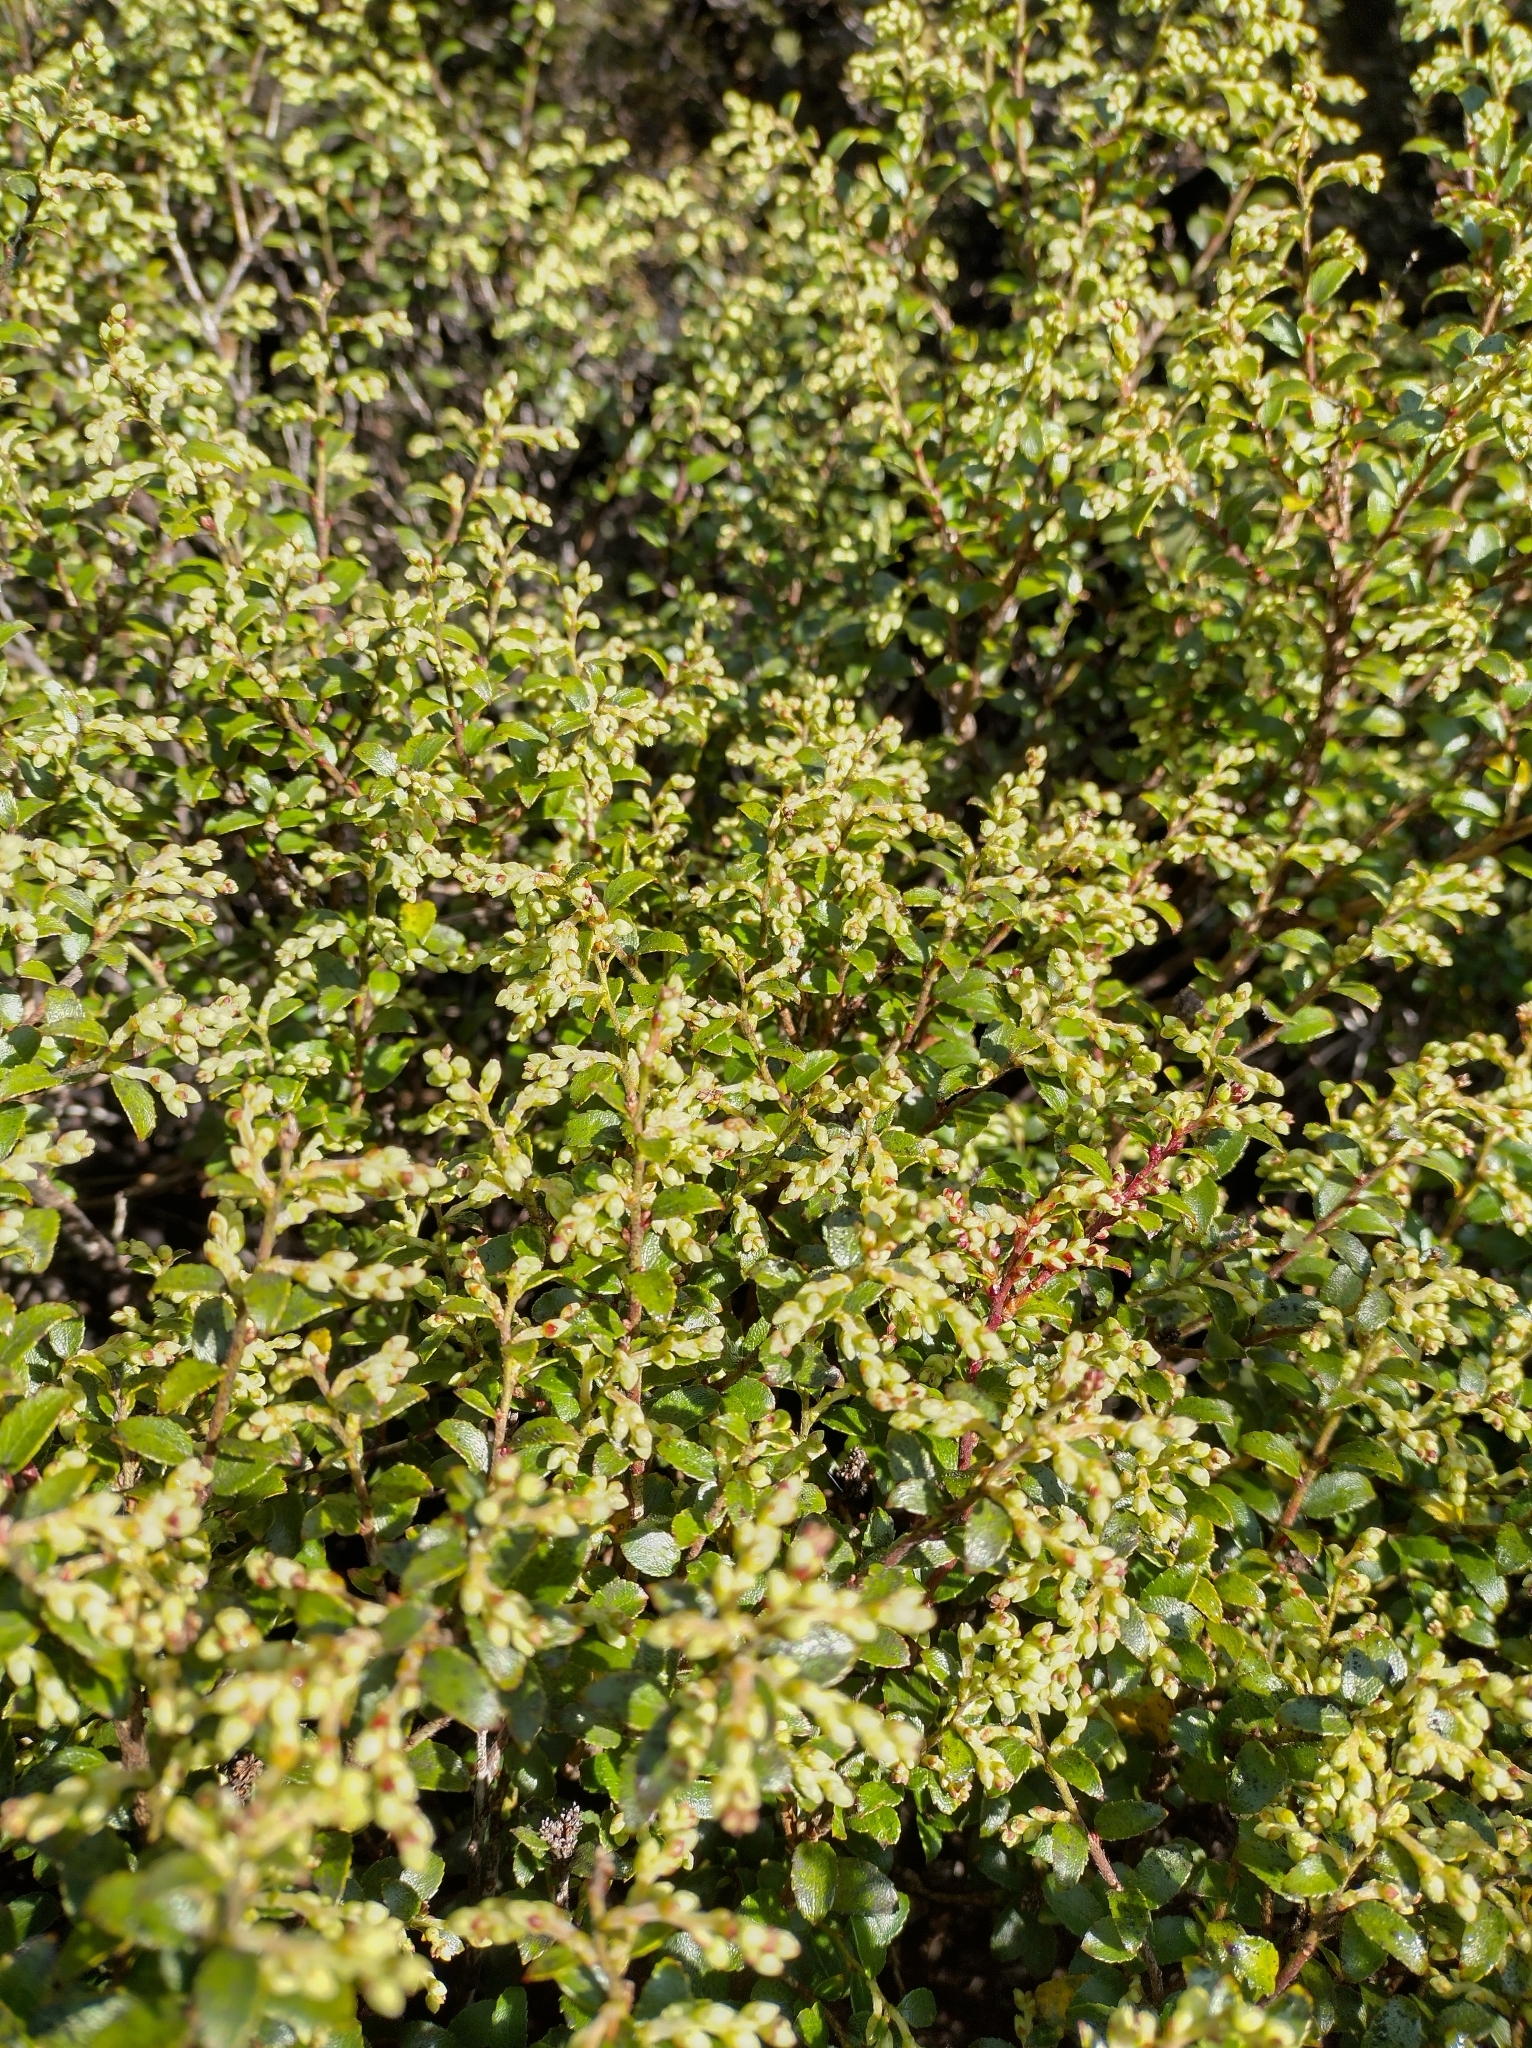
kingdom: Plantae
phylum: Tracheophyta
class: Magnoliopsida
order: Ericales
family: Ericaceae
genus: Gaultheria
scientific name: Gaultheria crassa
